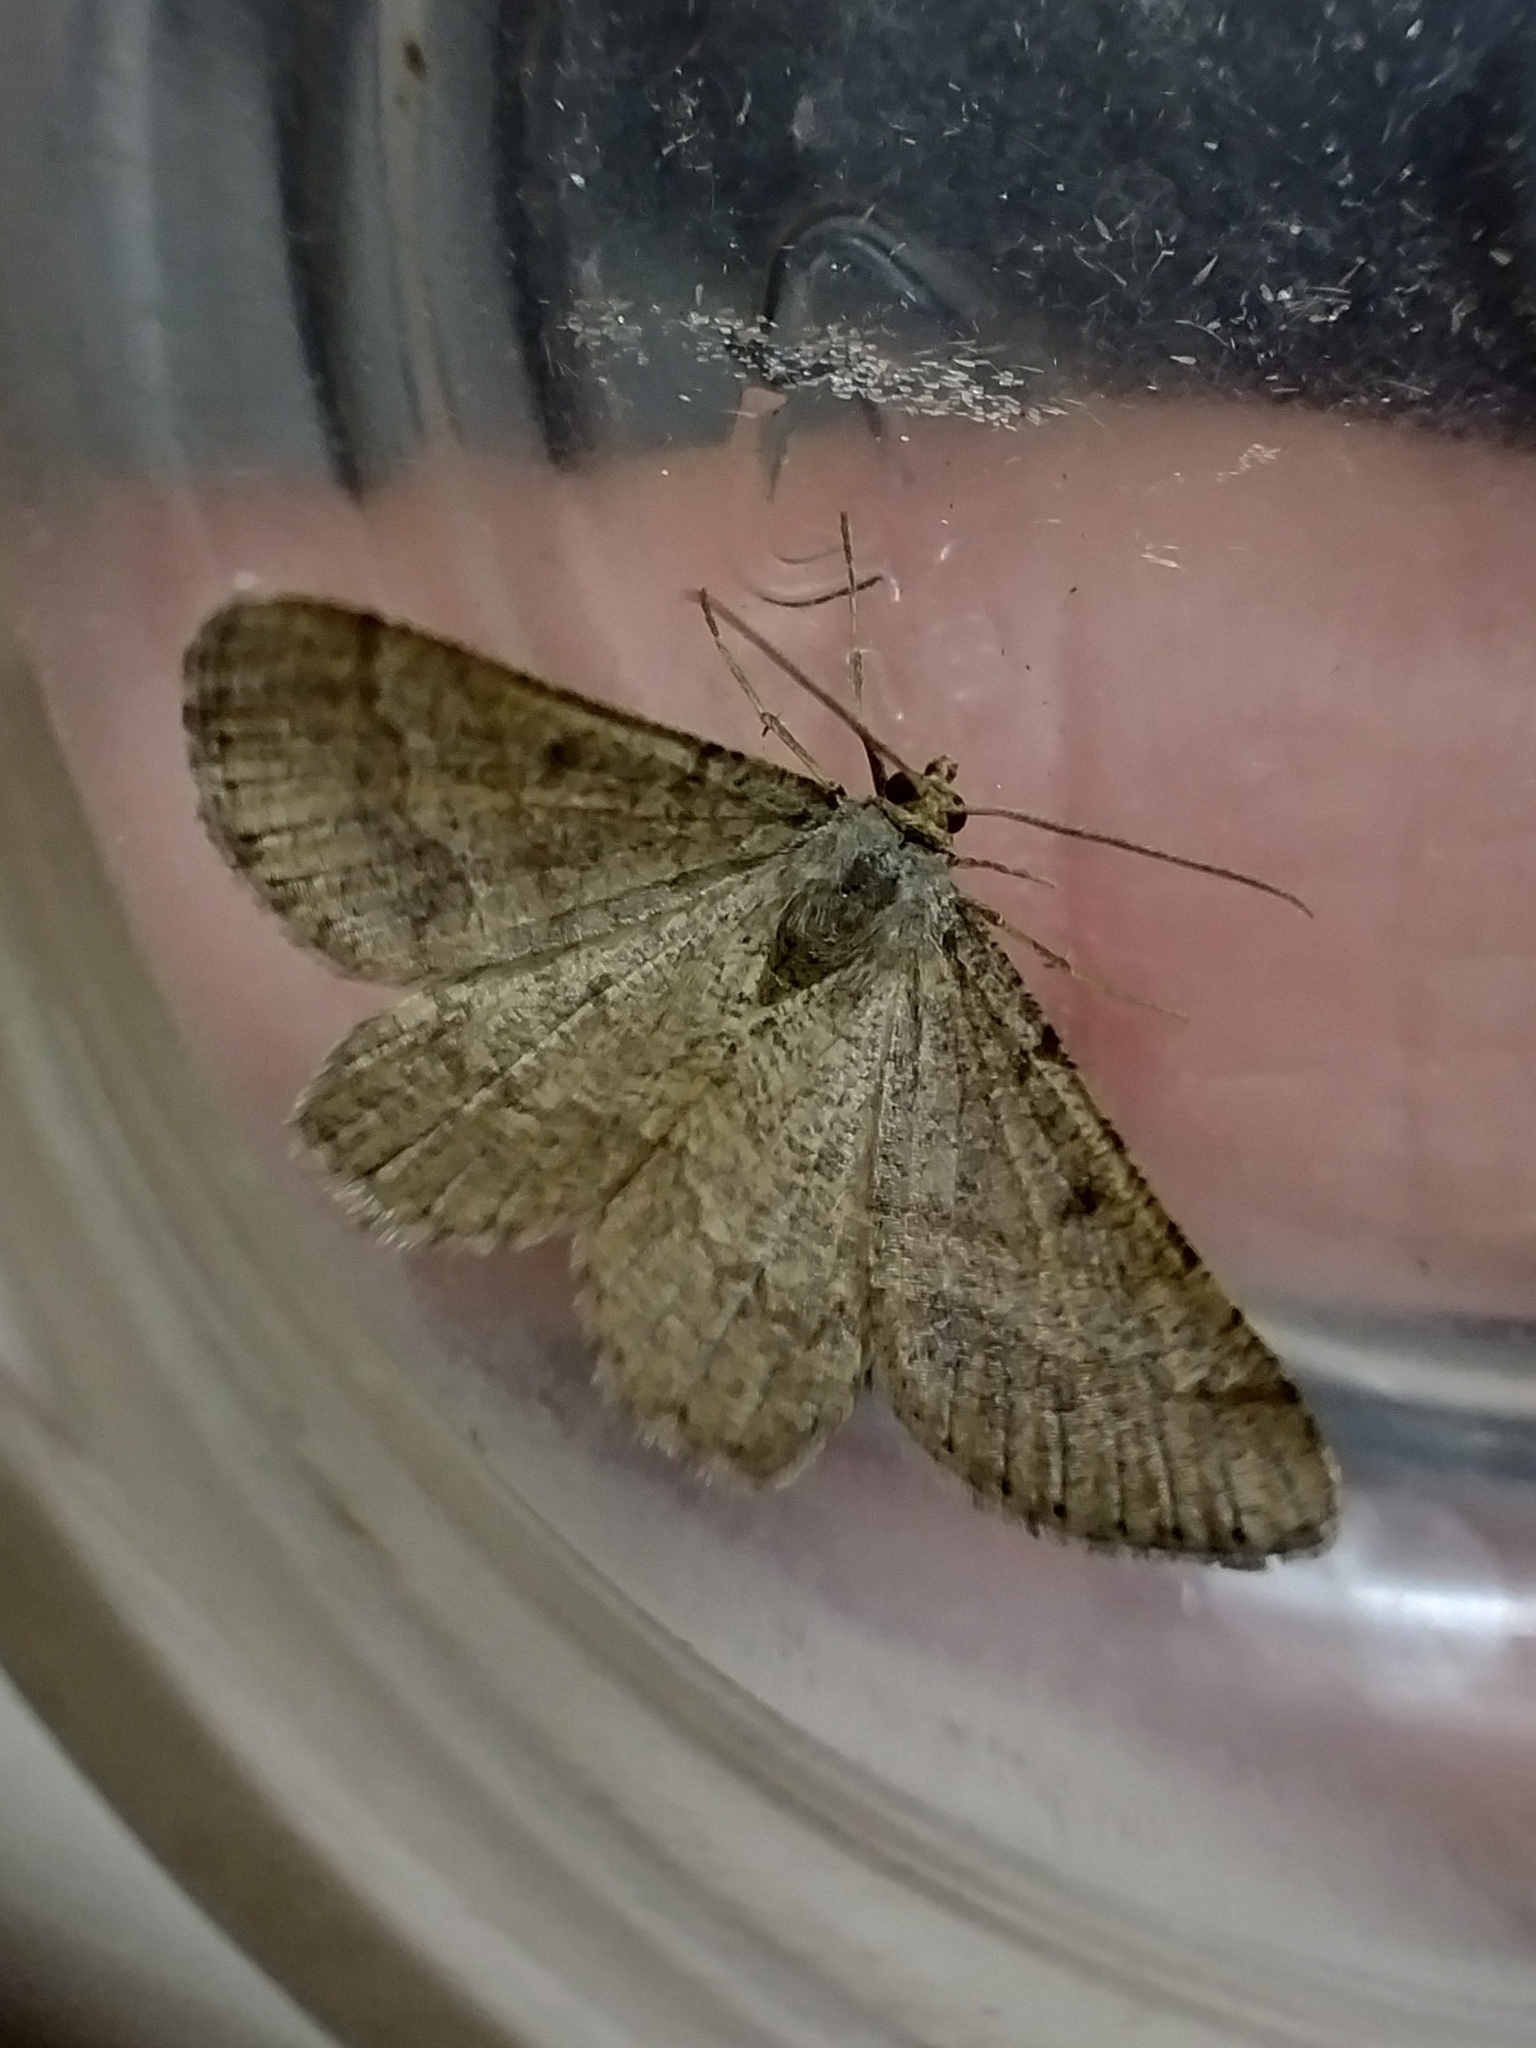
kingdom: Animalia
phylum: Arthropoda
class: Insecta
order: Lepidoptera
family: Geometridae
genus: Tephrina
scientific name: Tephrina murinaria
